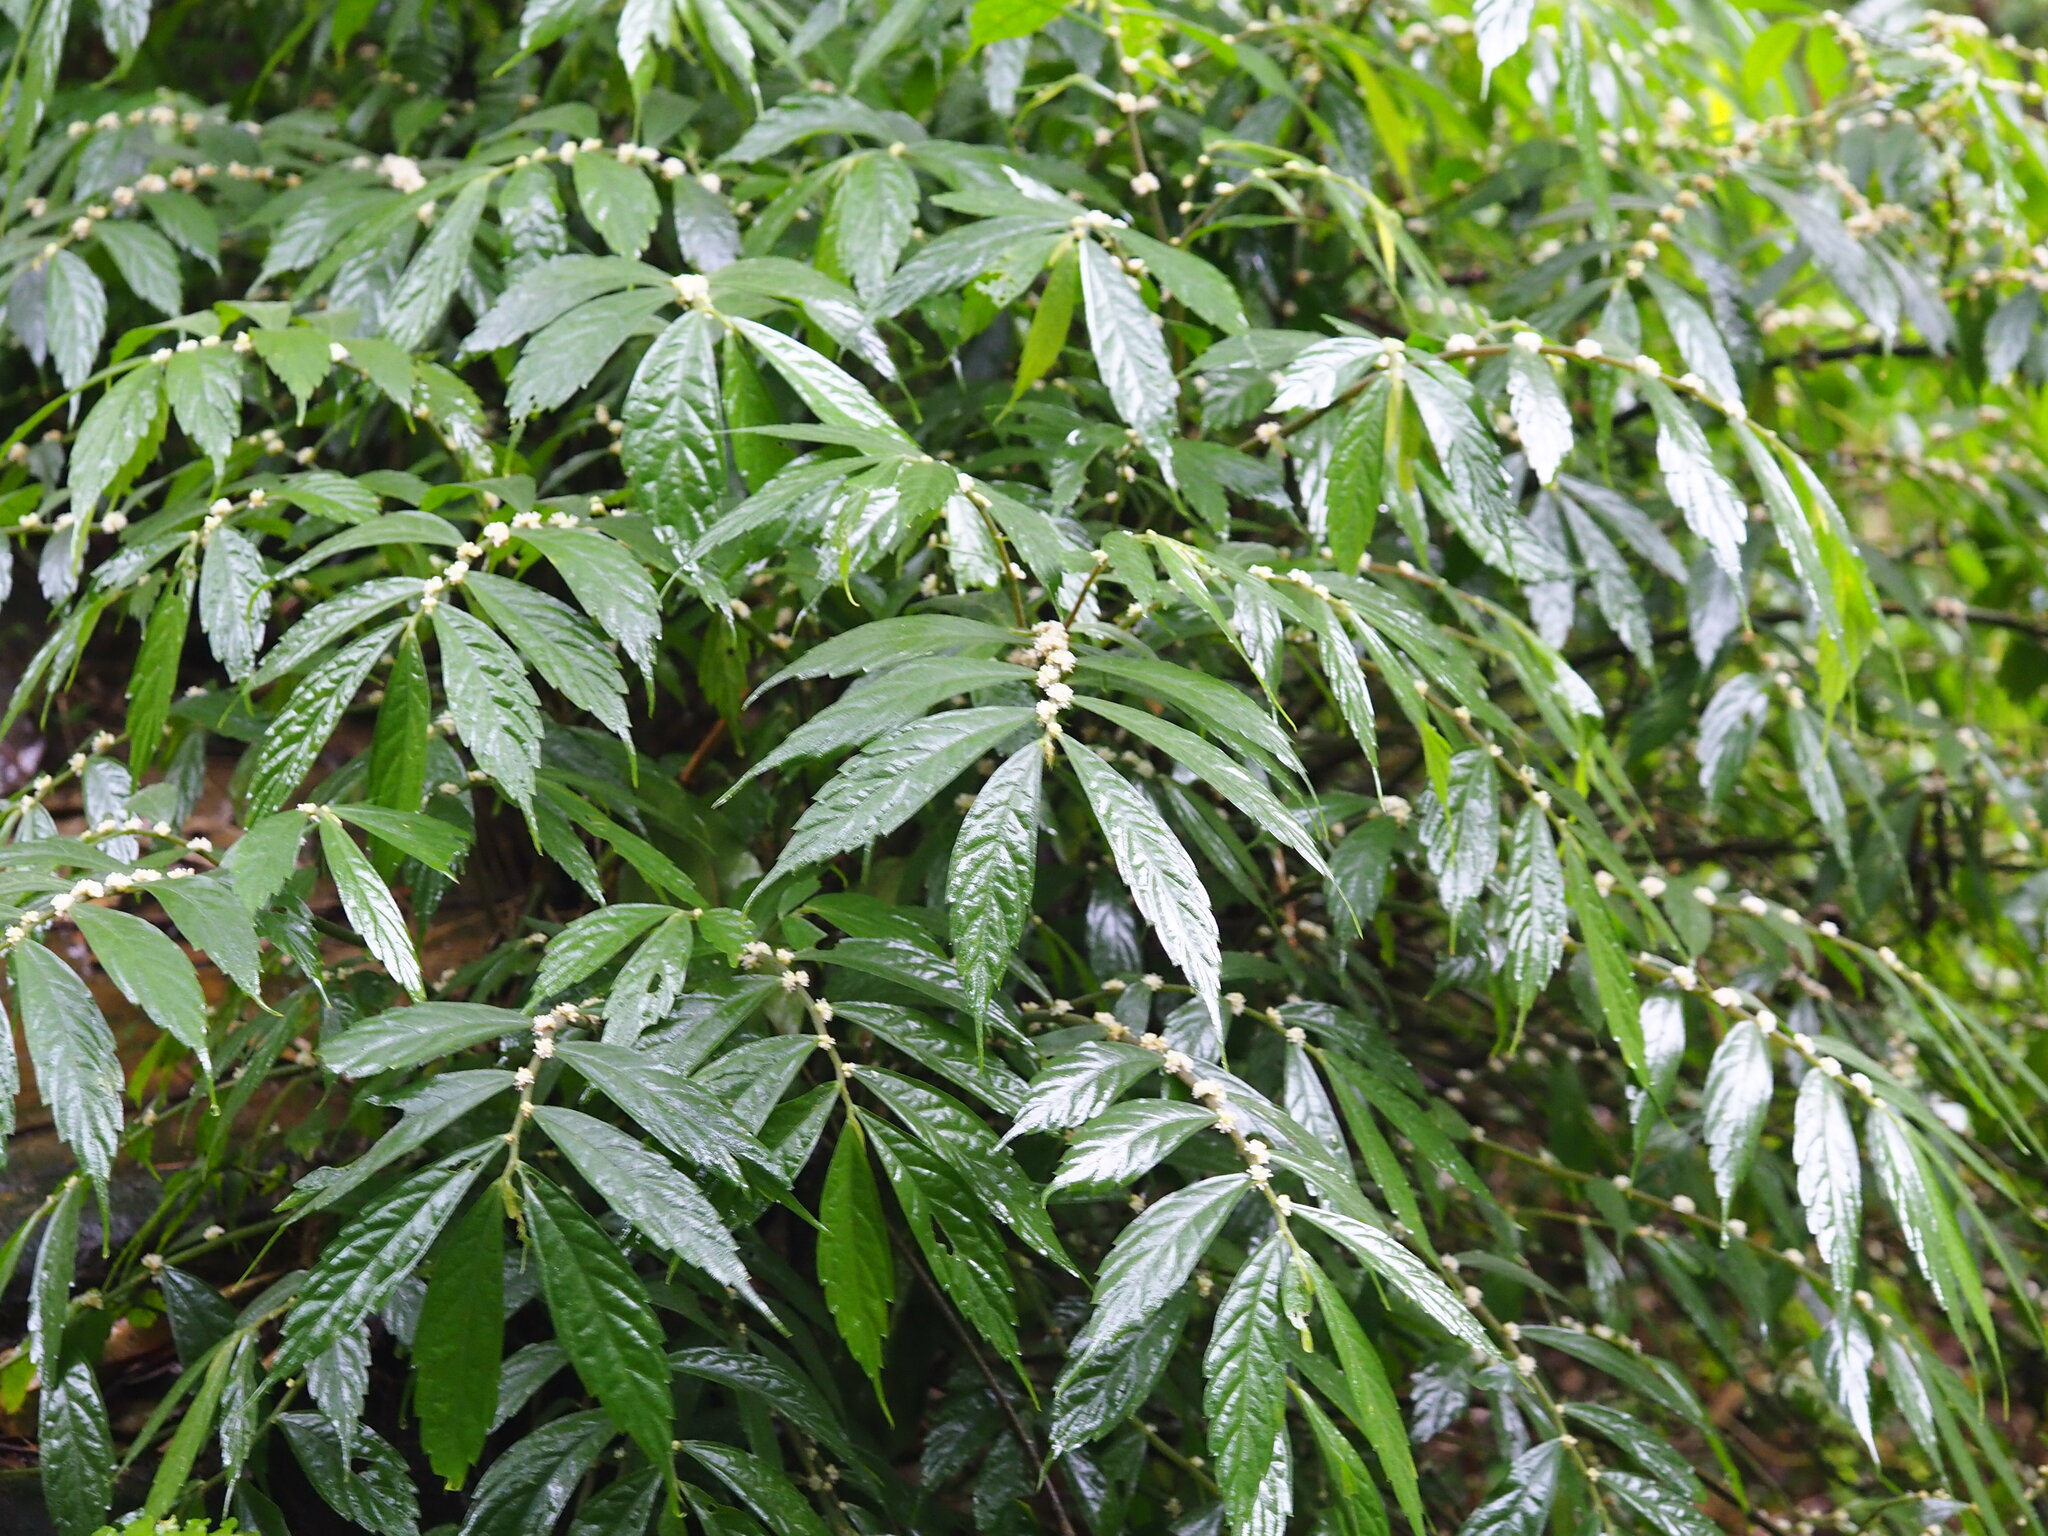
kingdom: Plantae
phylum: Tracheophyta
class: Magnoliopsida
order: Rosales
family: Urticaceae
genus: Elatostema
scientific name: Elatostema lineolatum
